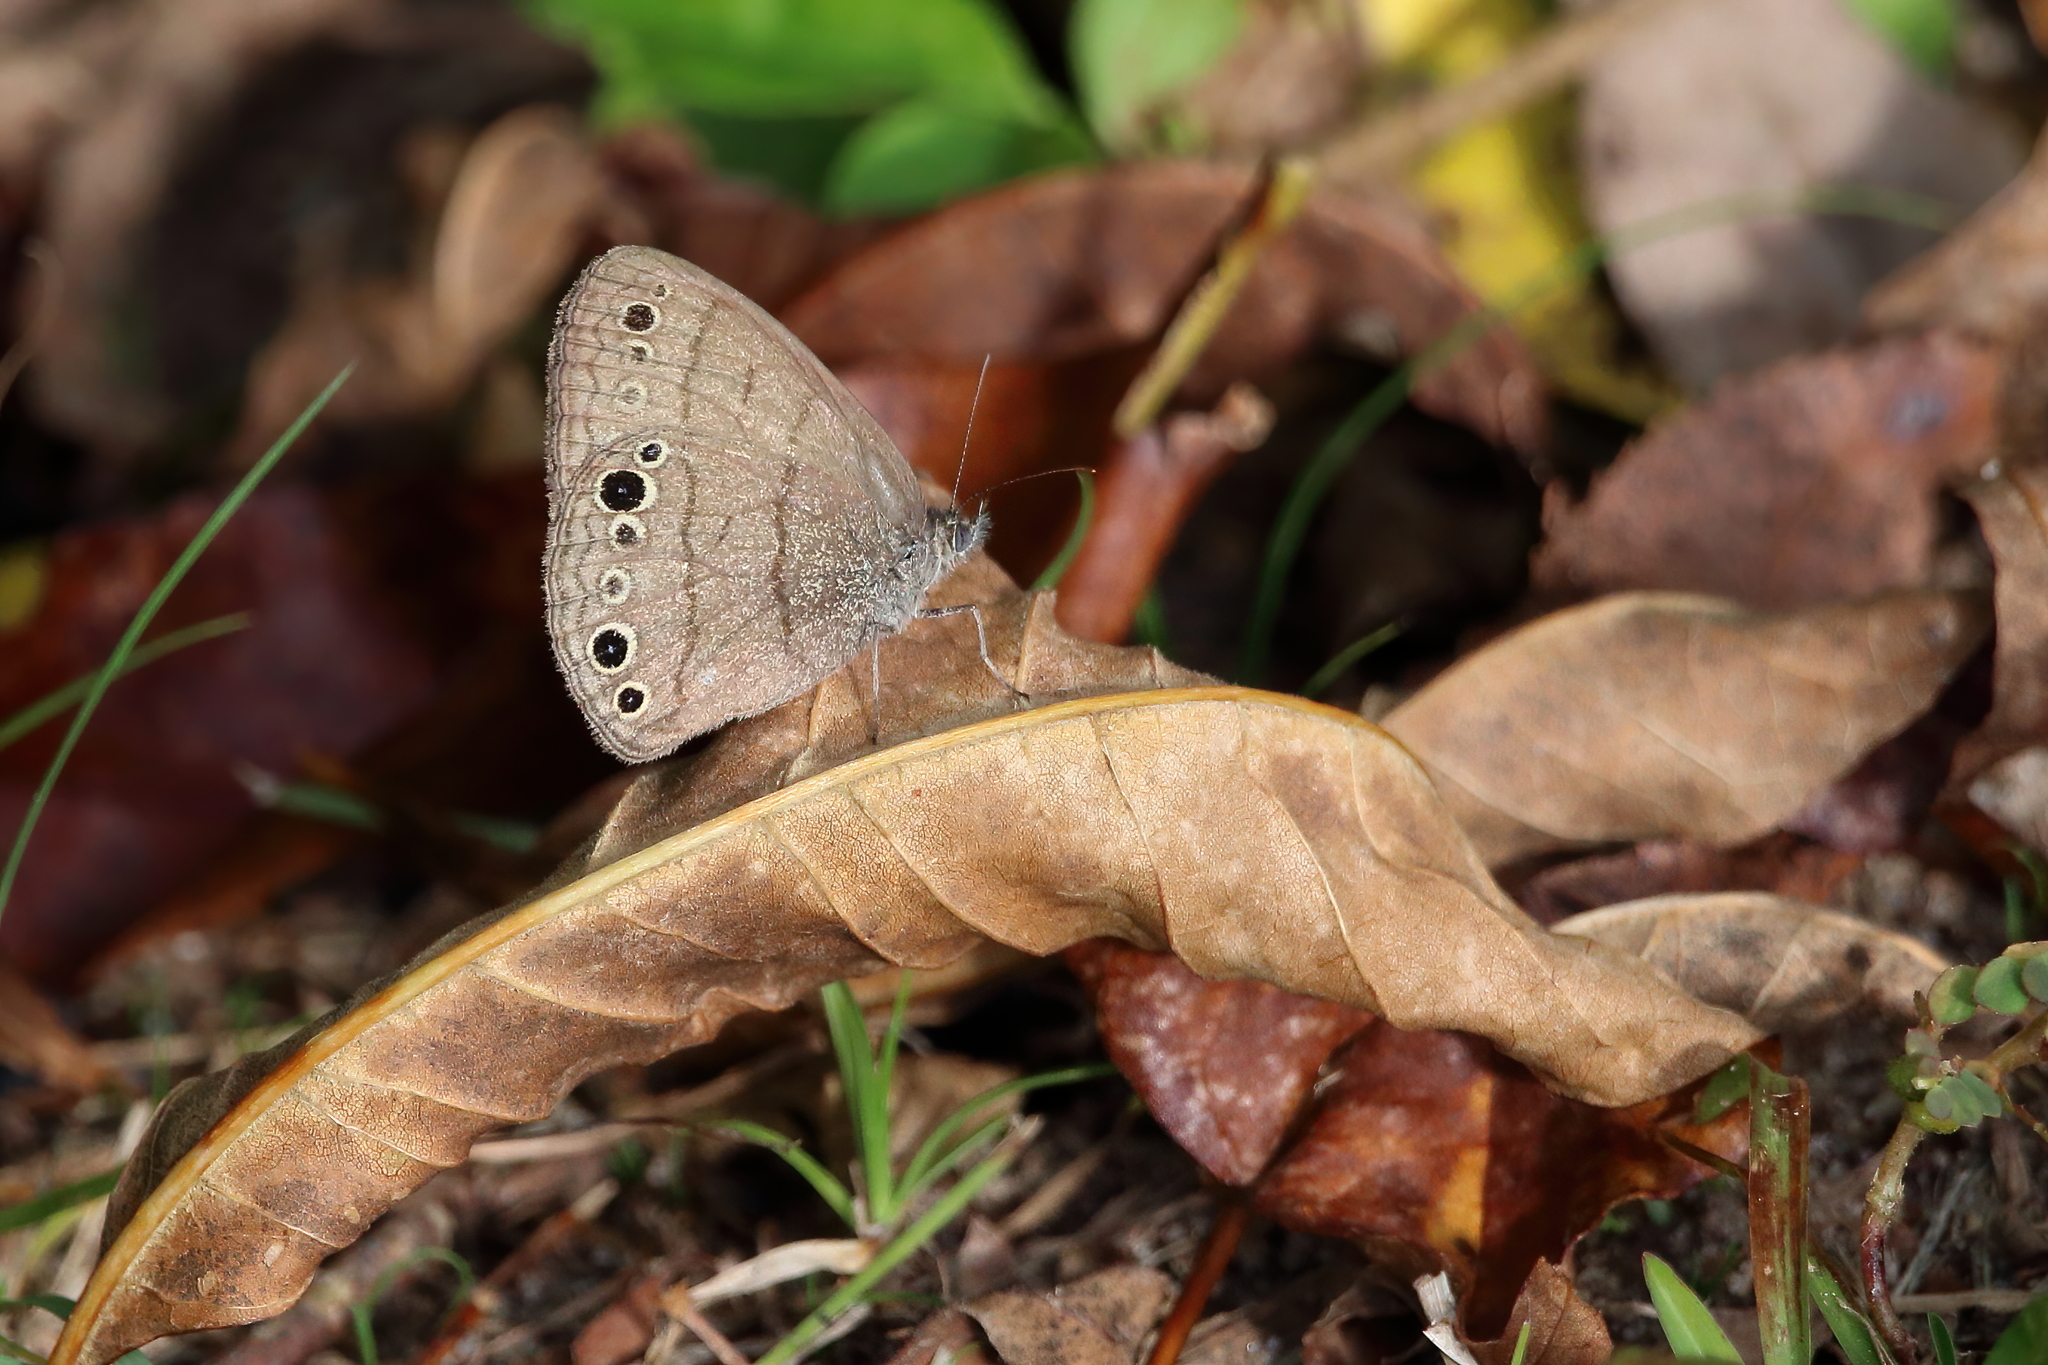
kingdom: Animalia
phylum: Arthropoda
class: Insecta
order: Lepidoptera
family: Nymphalidae
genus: Hermeuptychia
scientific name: Hermeuptychia hermes
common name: Hermes satyr
